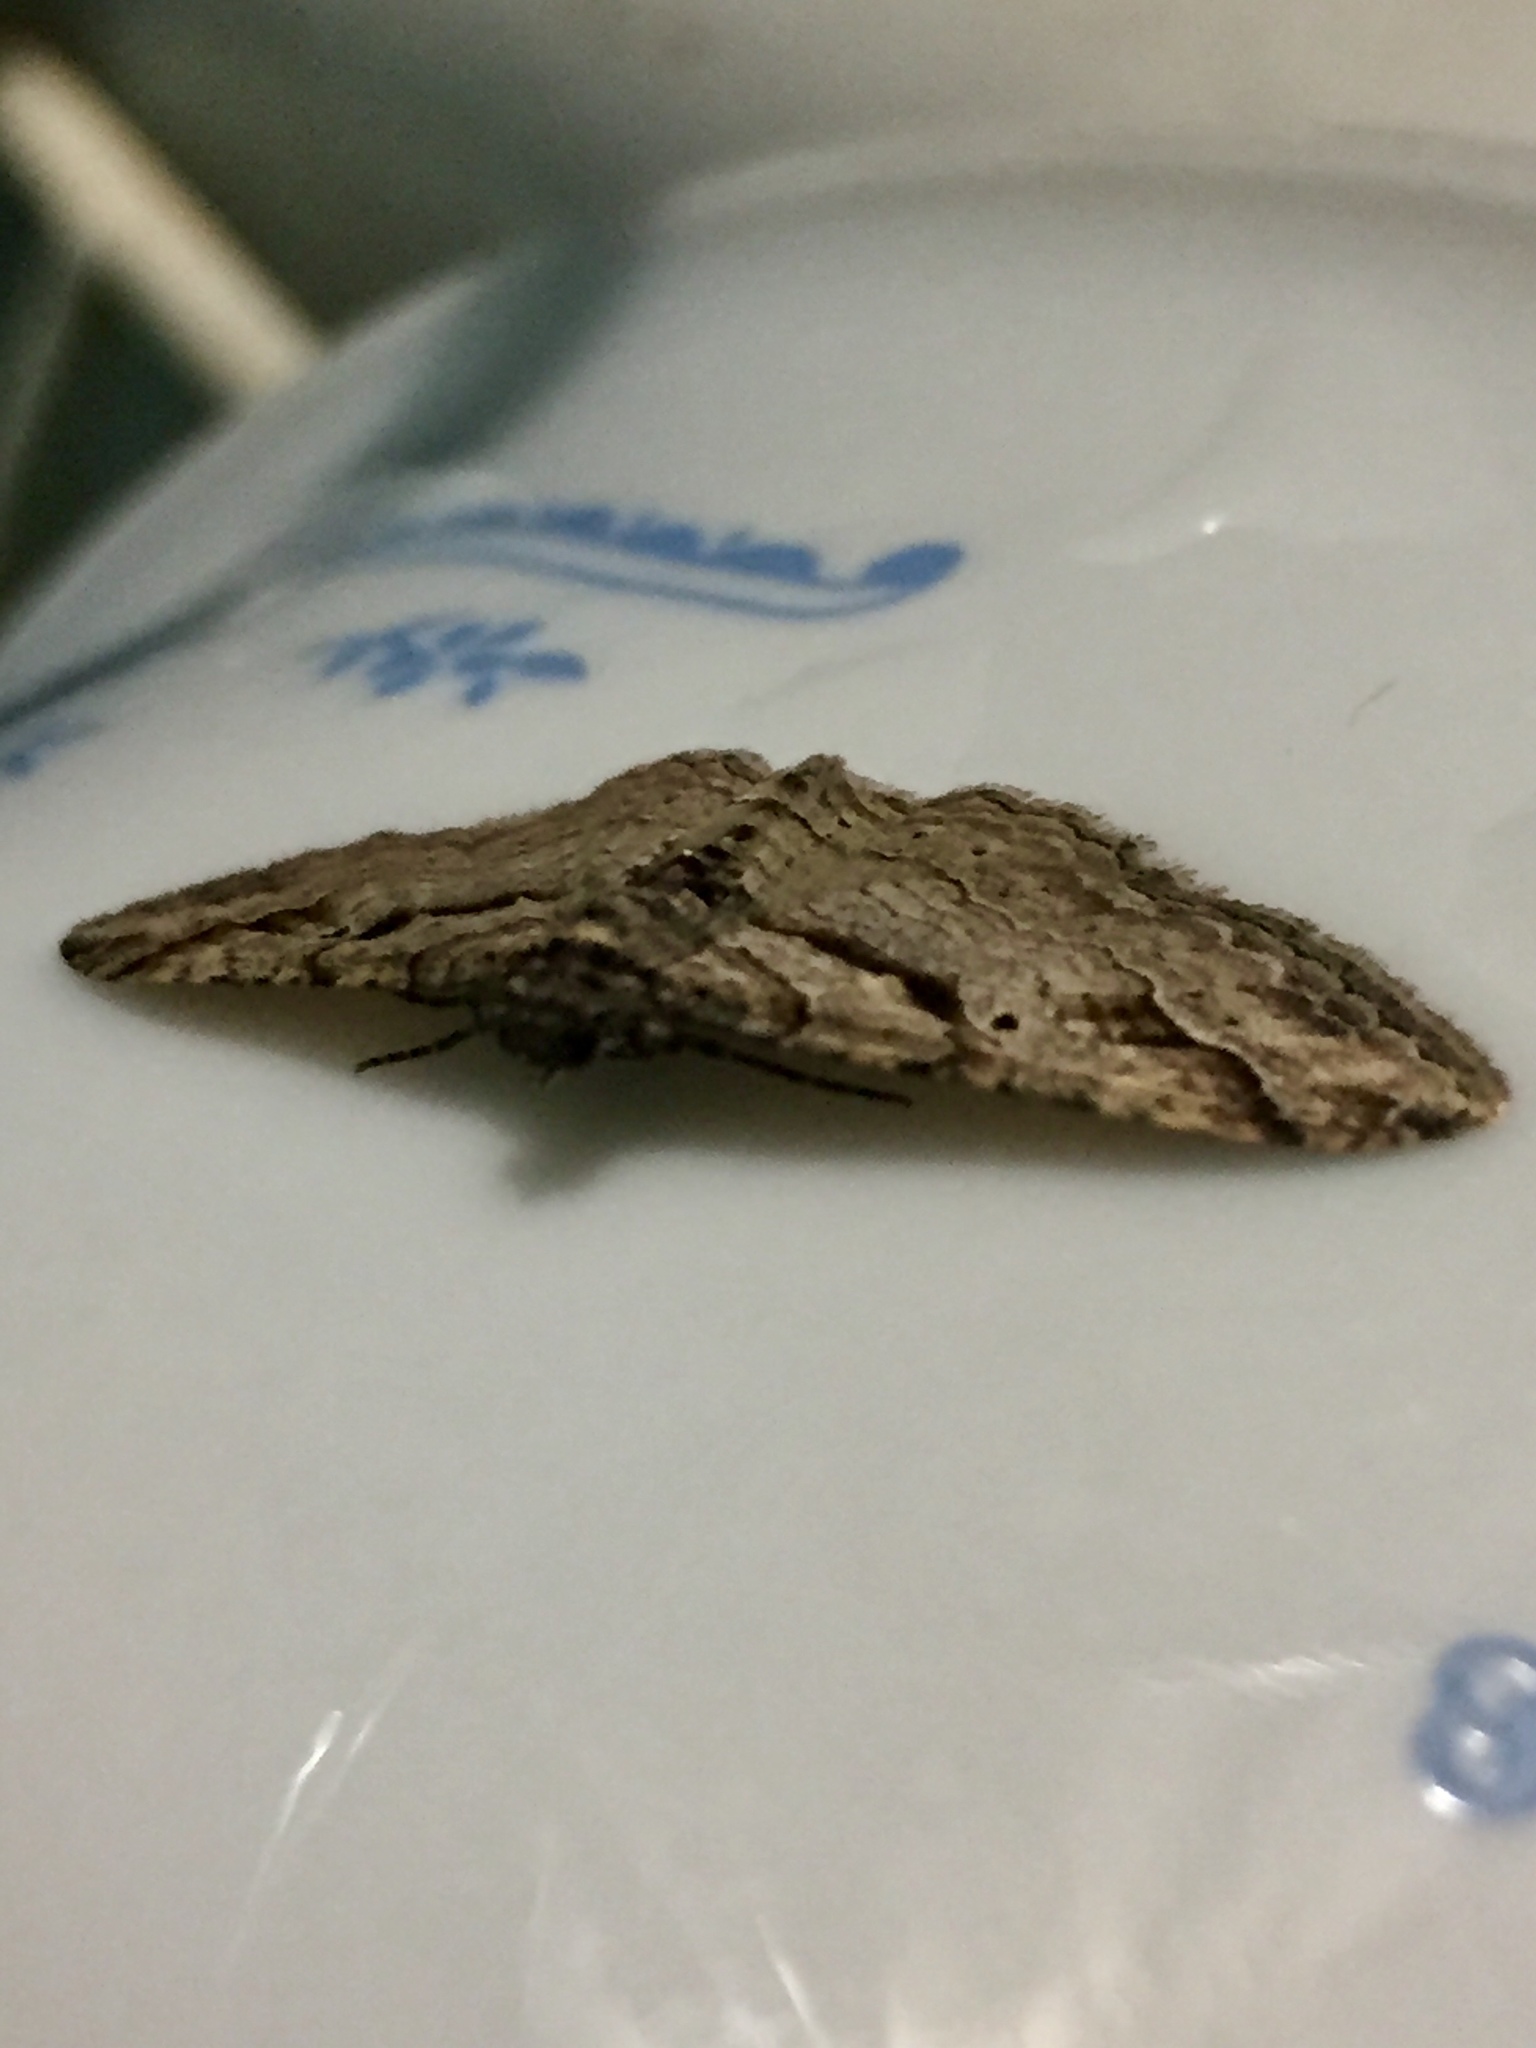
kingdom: Animalia
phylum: Arthropoda
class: Insecta
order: Lepidoptera
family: Geometridae
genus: Costaconvexa
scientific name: Costaconvexa centrostrigaria
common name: Bent-line carpet
